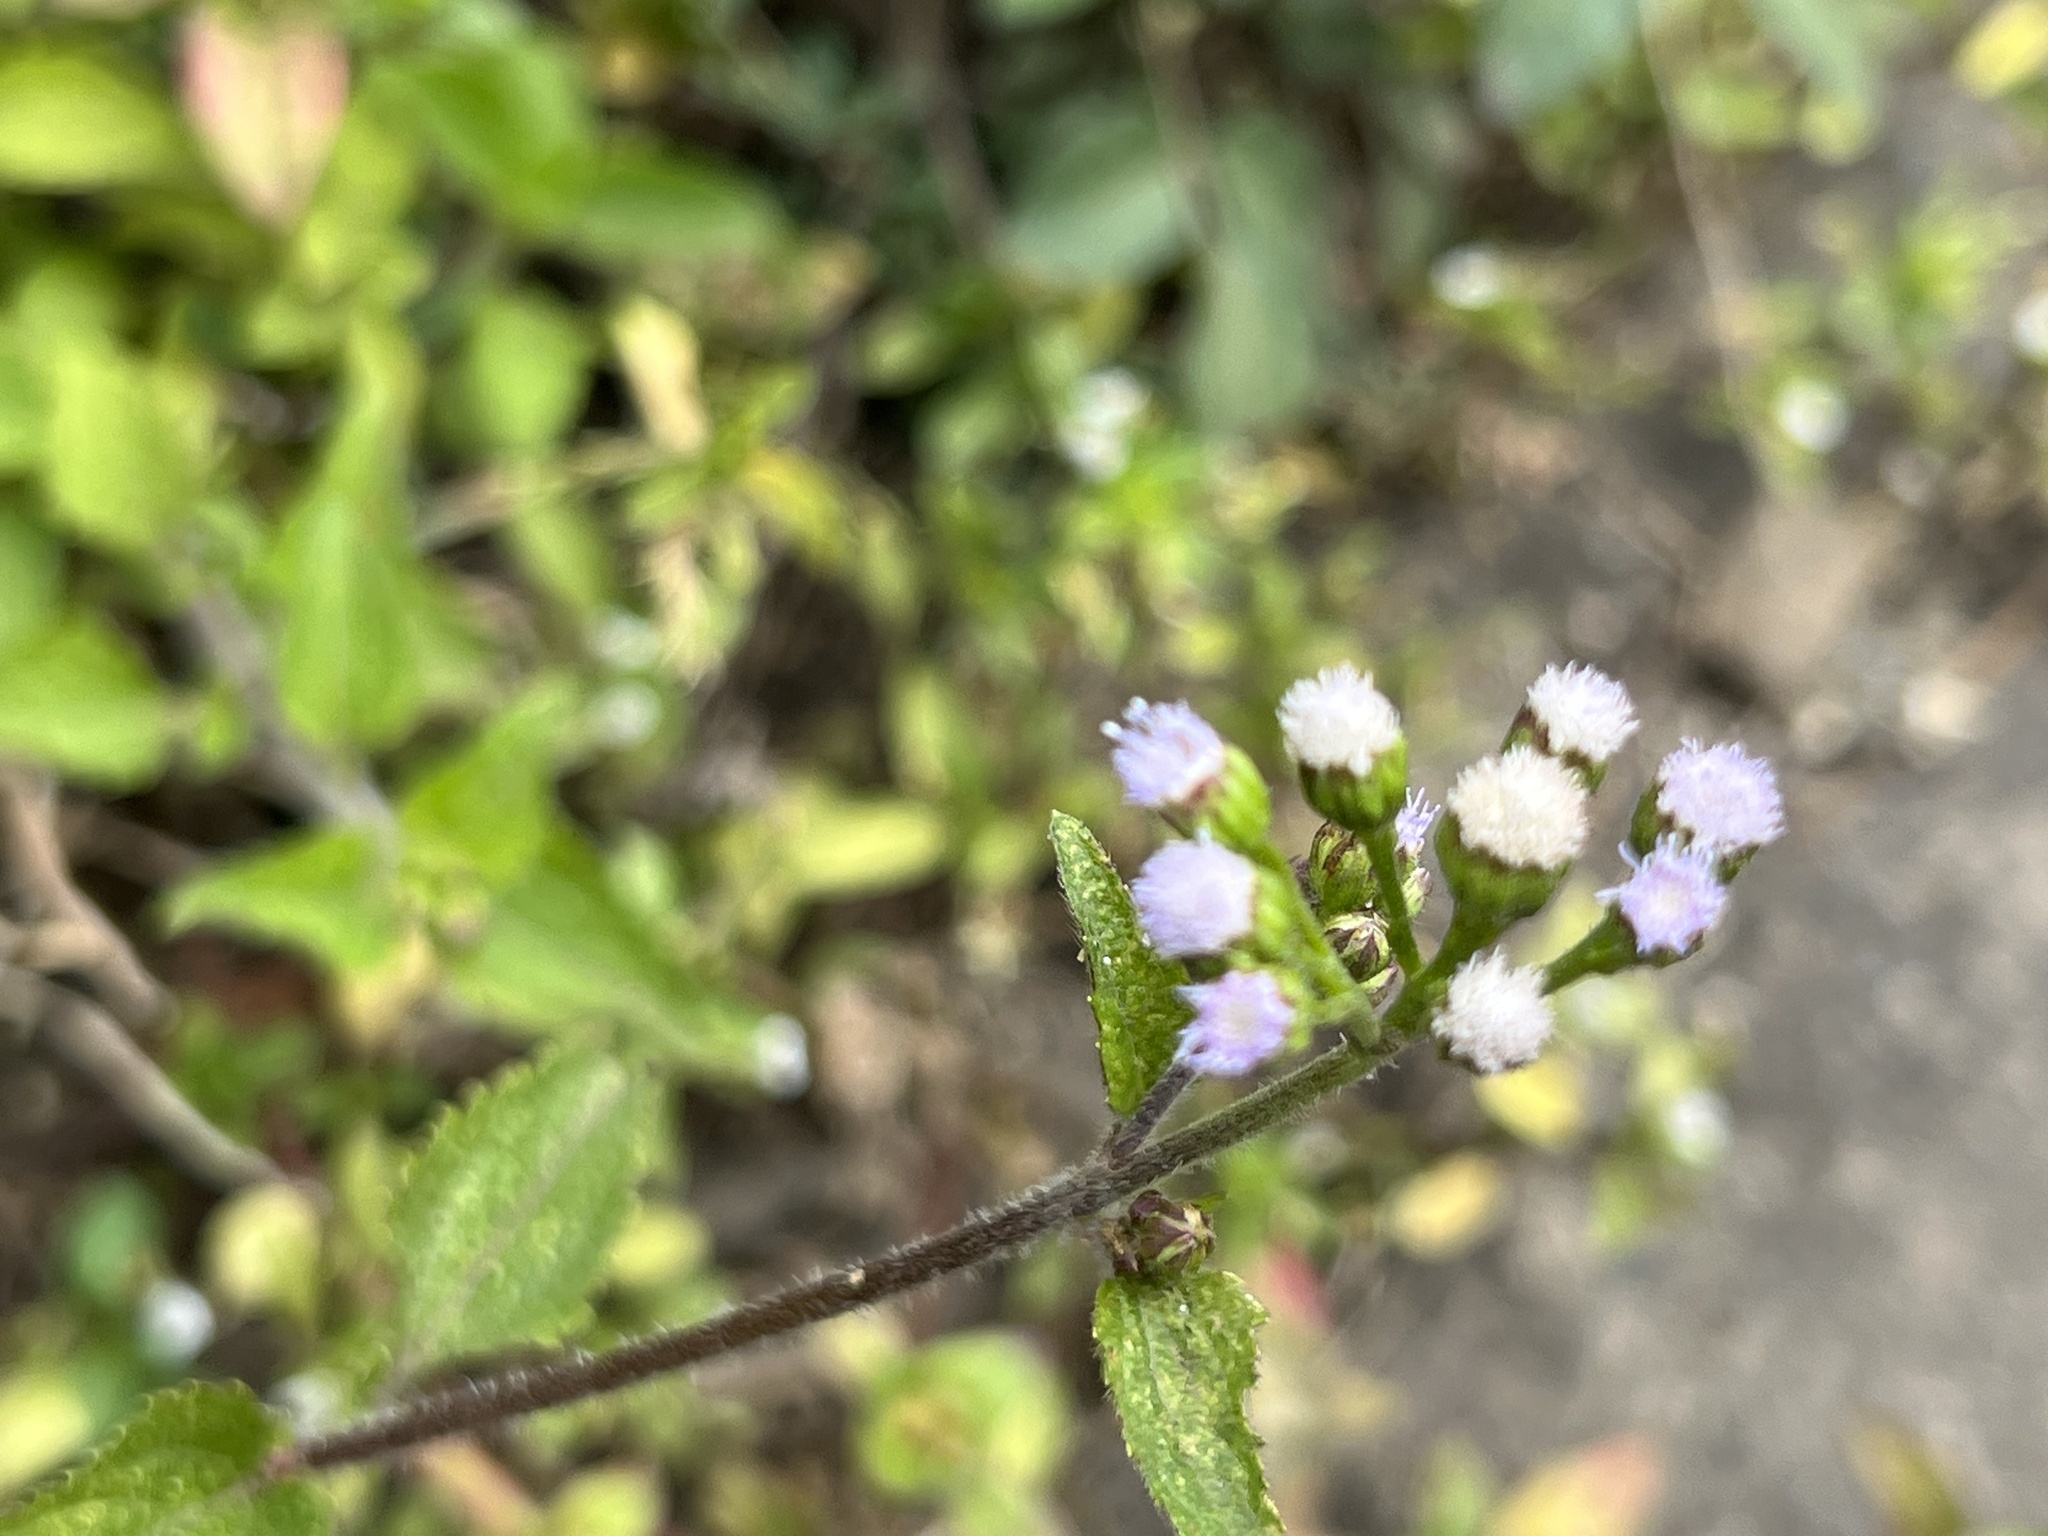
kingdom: Plantae
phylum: Tracheophyta
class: Magnoliopsida
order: Asterales
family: Asteraceae
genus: Ageratum
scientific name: Ageratum conyzoides
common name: Tropical whiteweed
